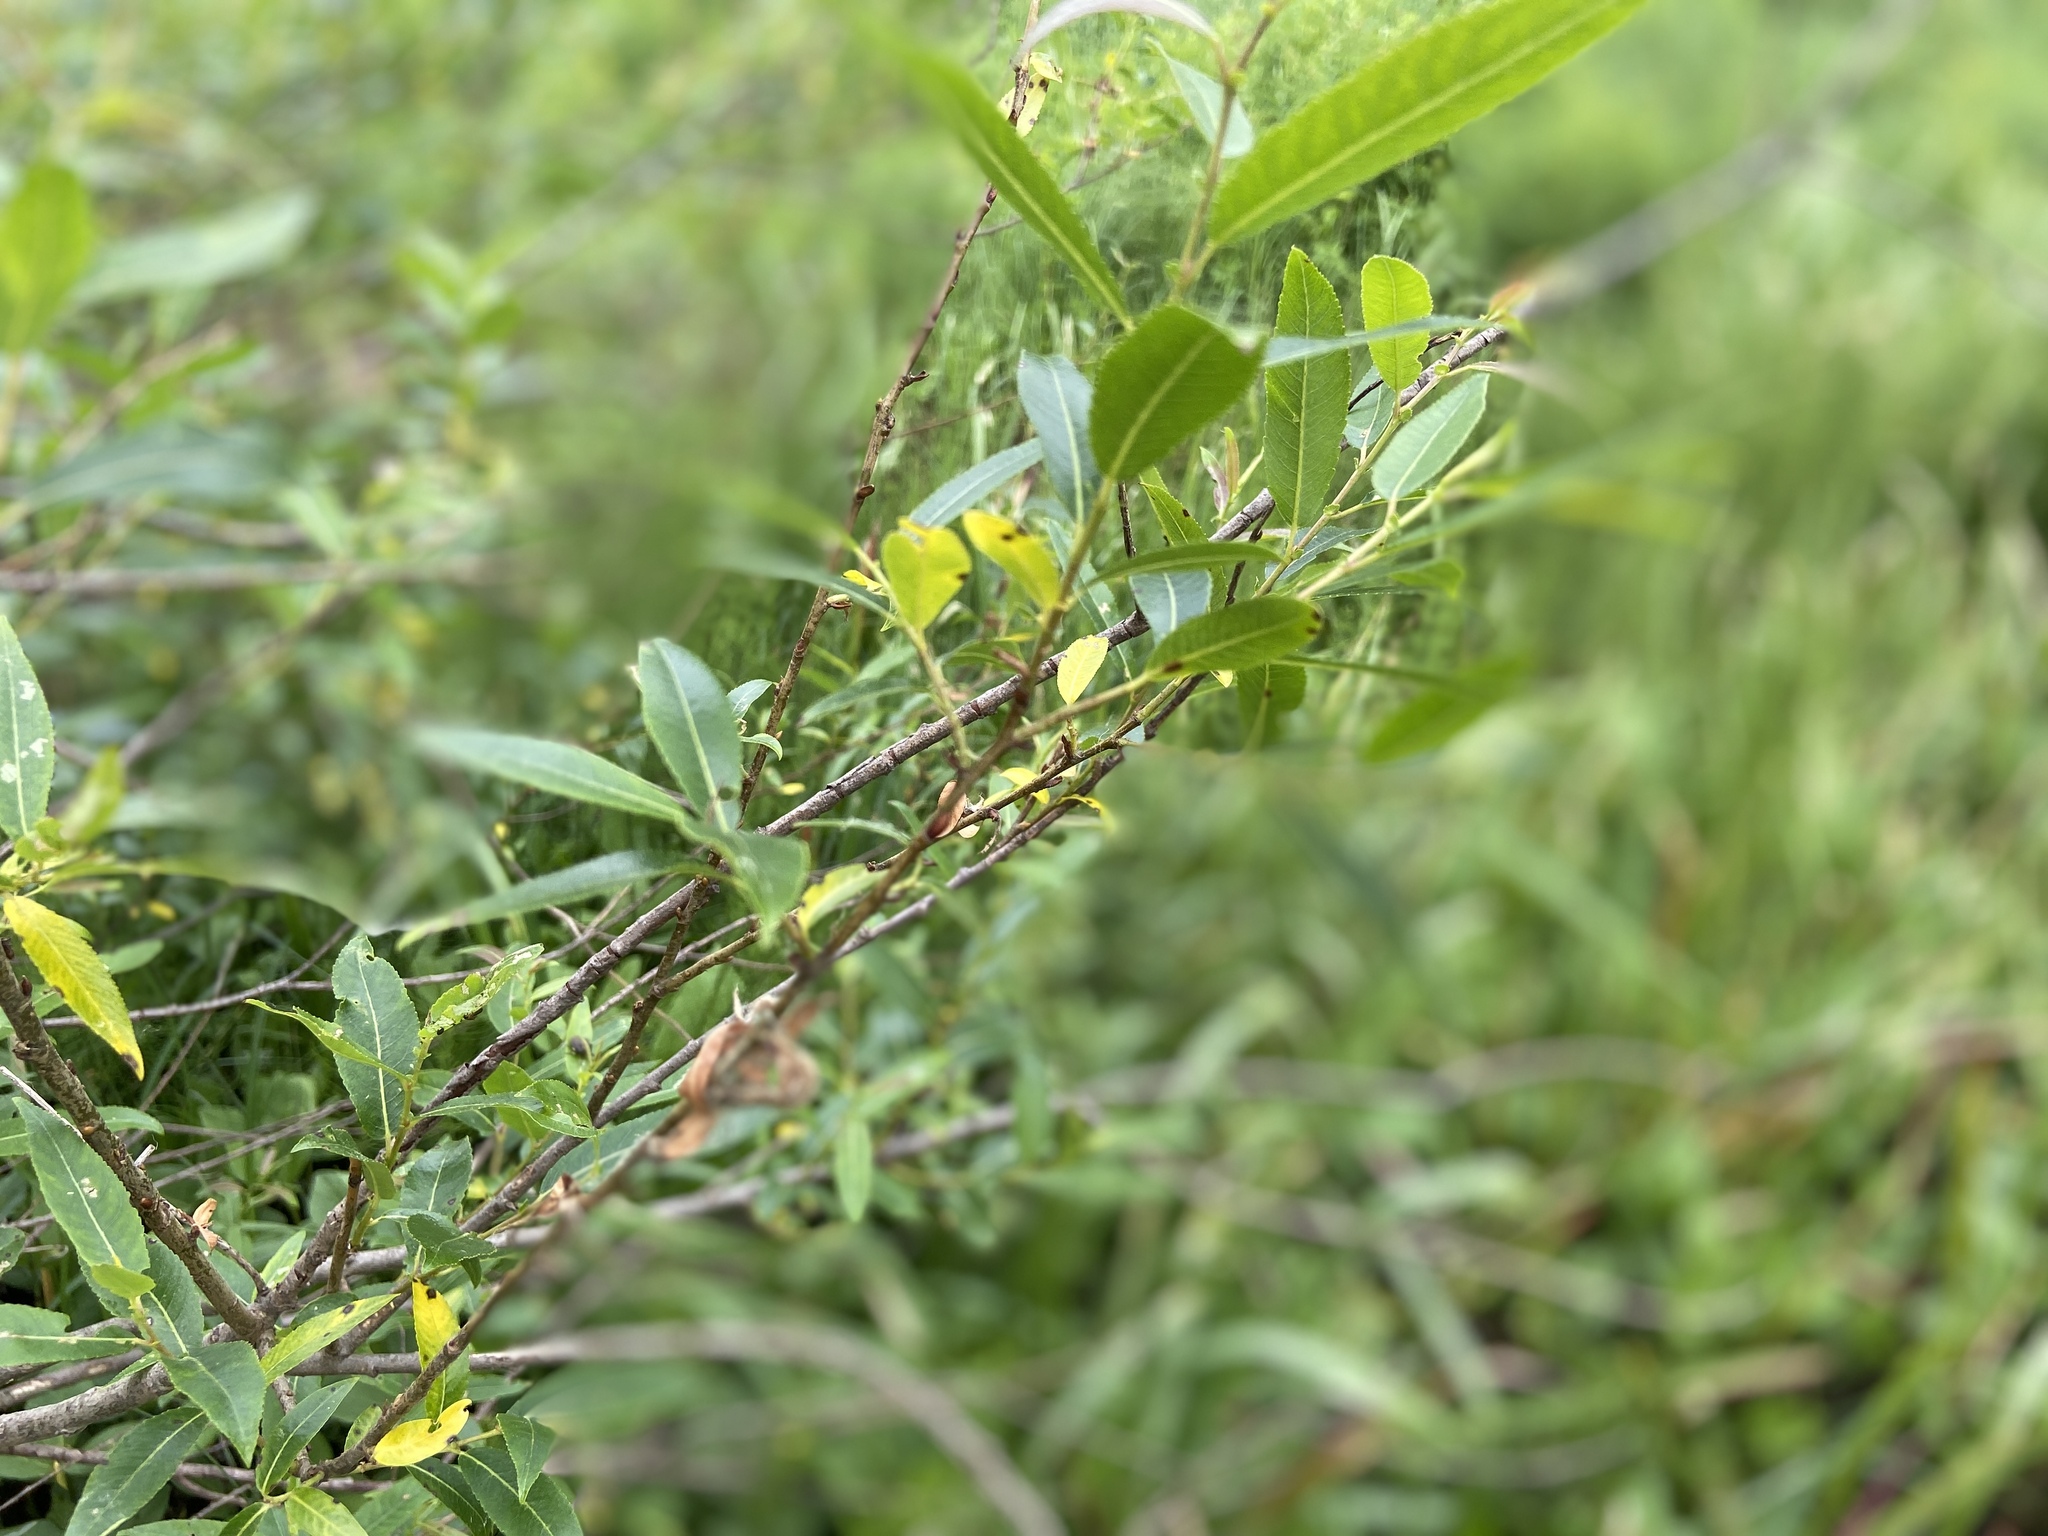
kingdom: Plantae
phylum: Tracheophyta
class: Magnoliopsida
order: Malpighiales
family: Salicaceae
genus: Salix
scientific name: Salix triandra
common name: Almond willow
